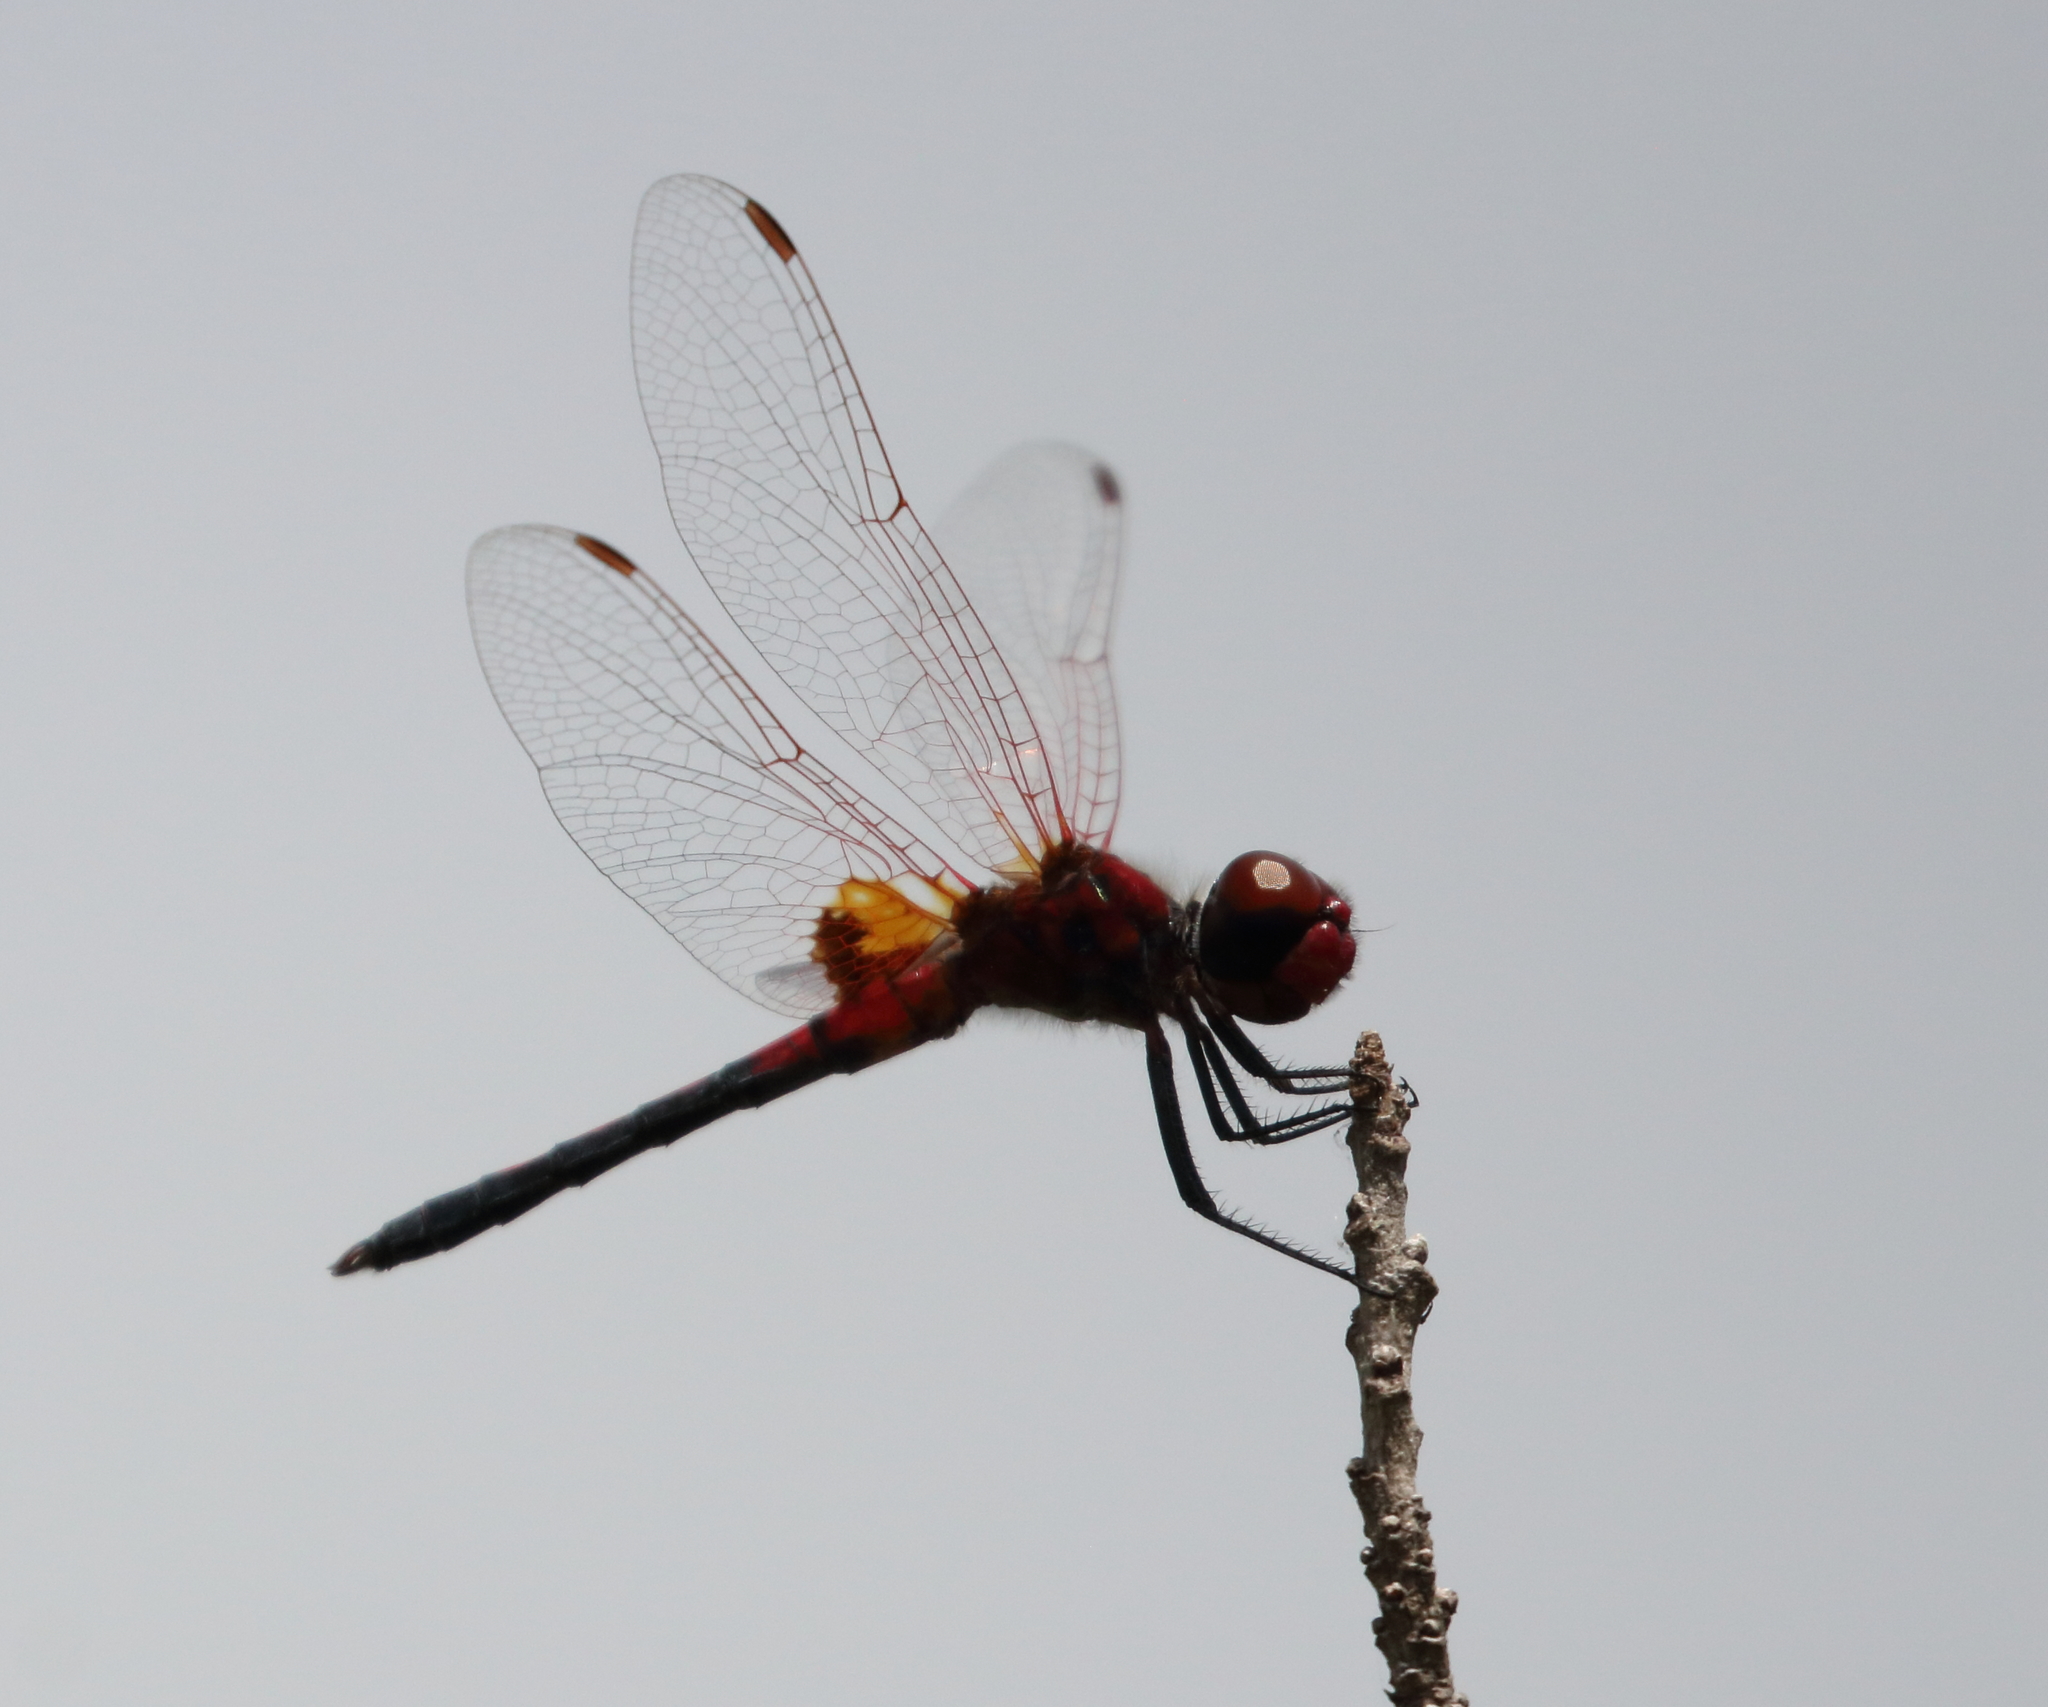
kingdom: Animalia
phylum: Arthropoda
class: Insecta
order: Odonata
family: Libellulidae
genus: Celithemis
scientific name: Celithemis bertha
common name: Red-veined pennant
